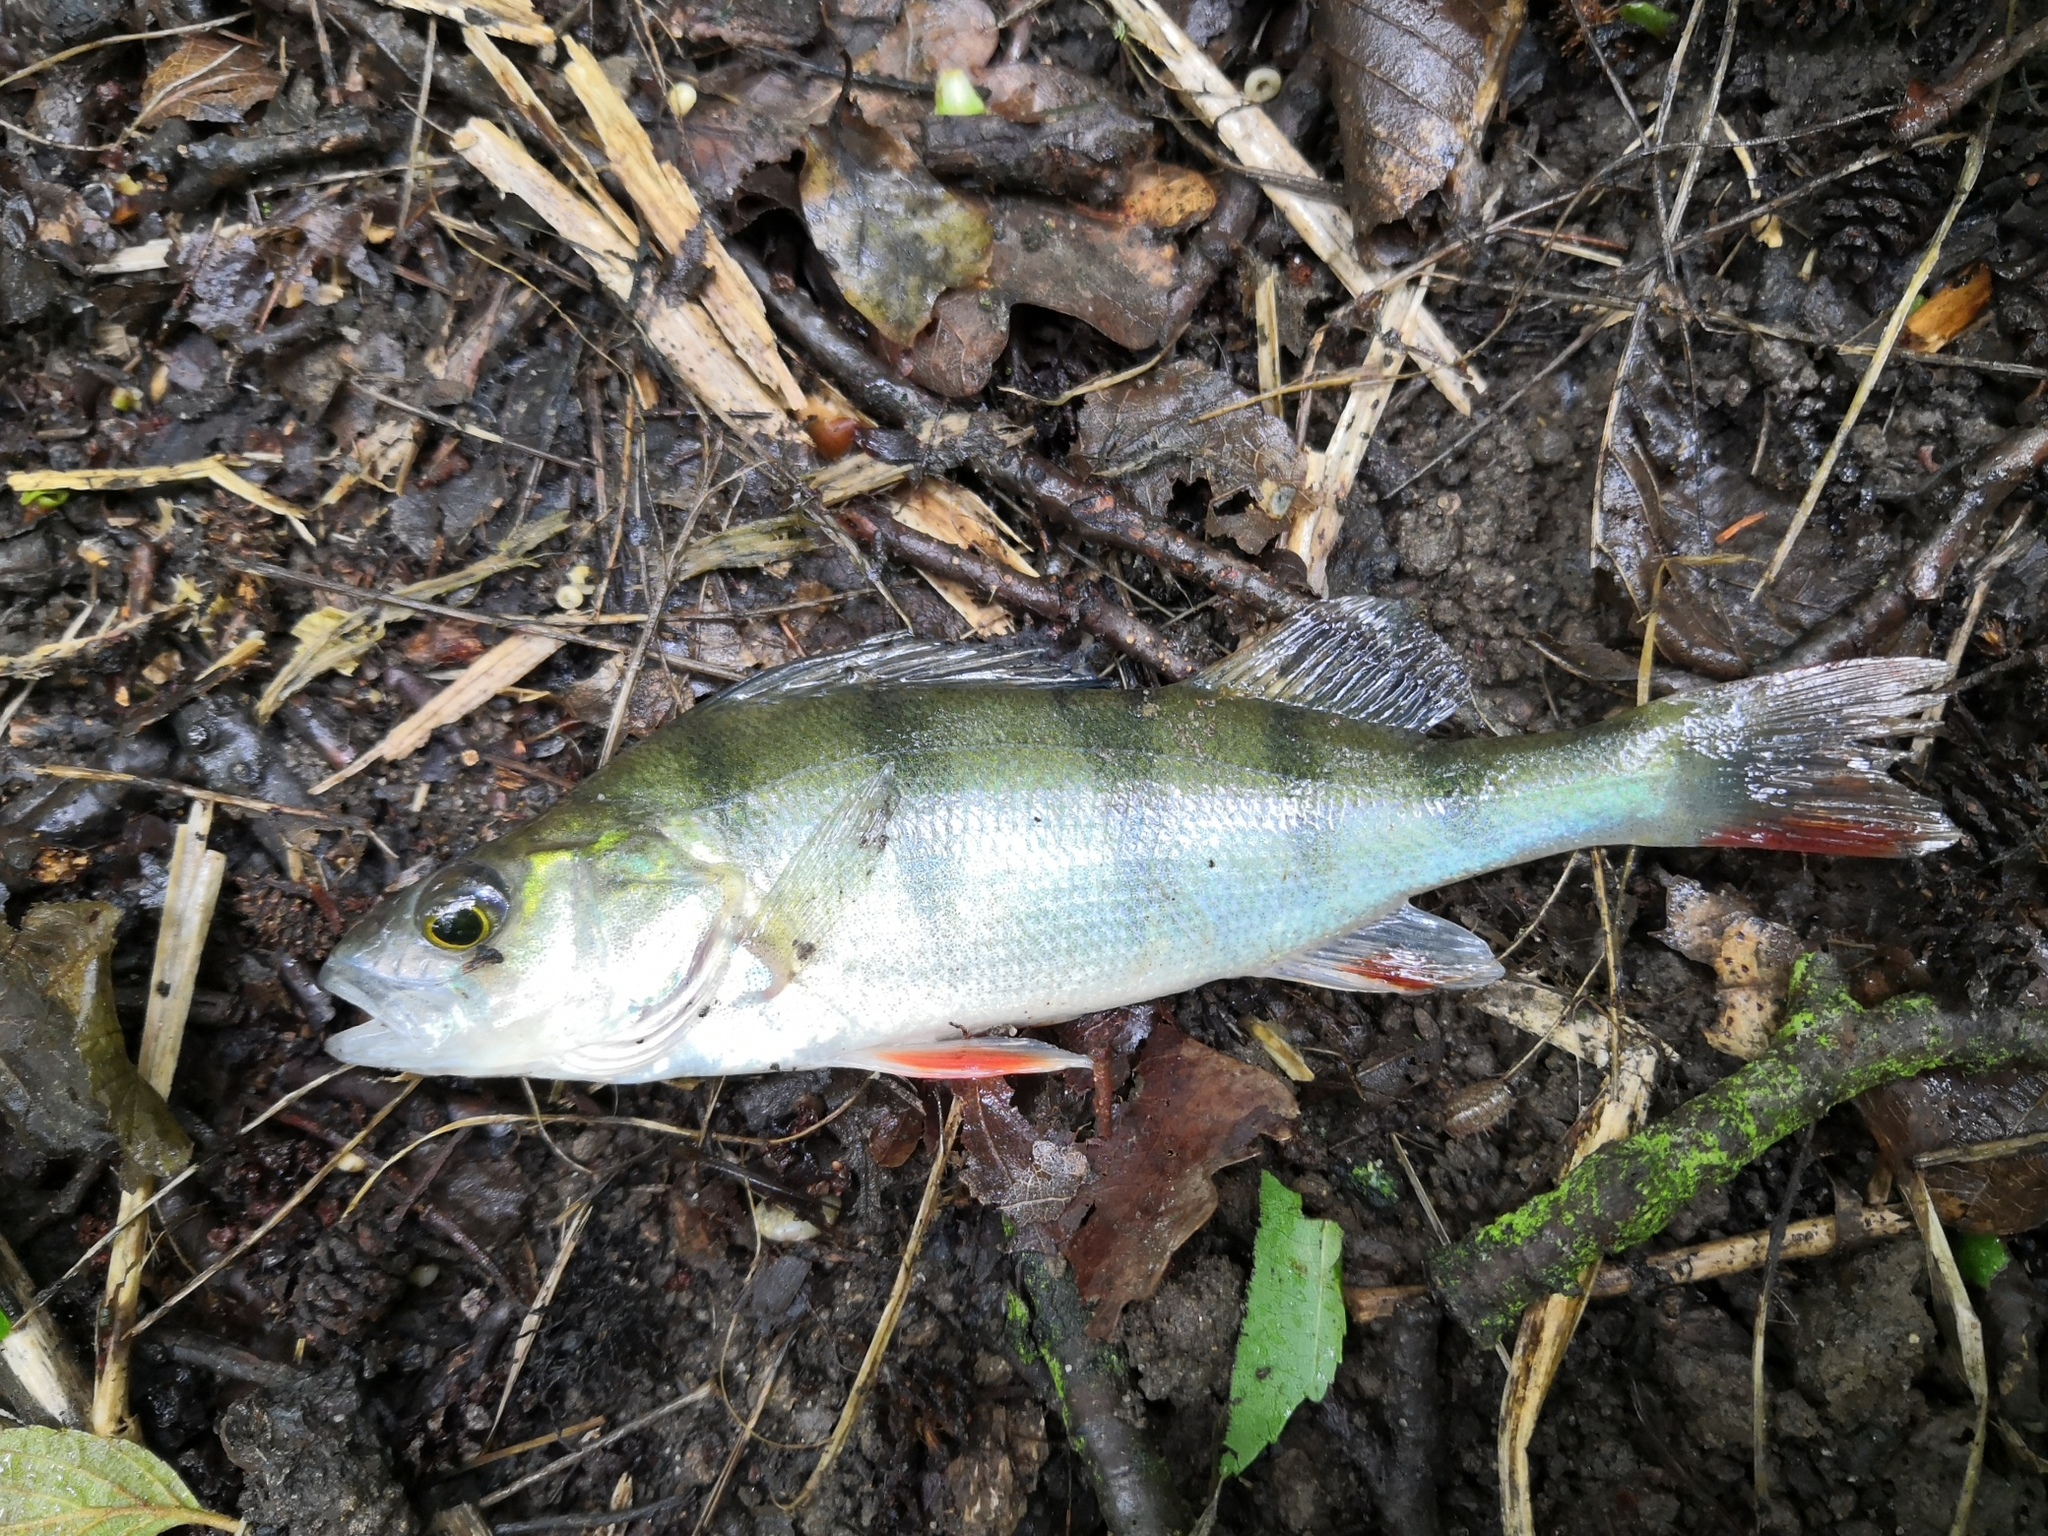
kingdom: Animalia
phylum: Chordata
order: Perciformes
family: Percidae
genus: Perca
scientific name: Perca fluviatilis
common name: Perch
